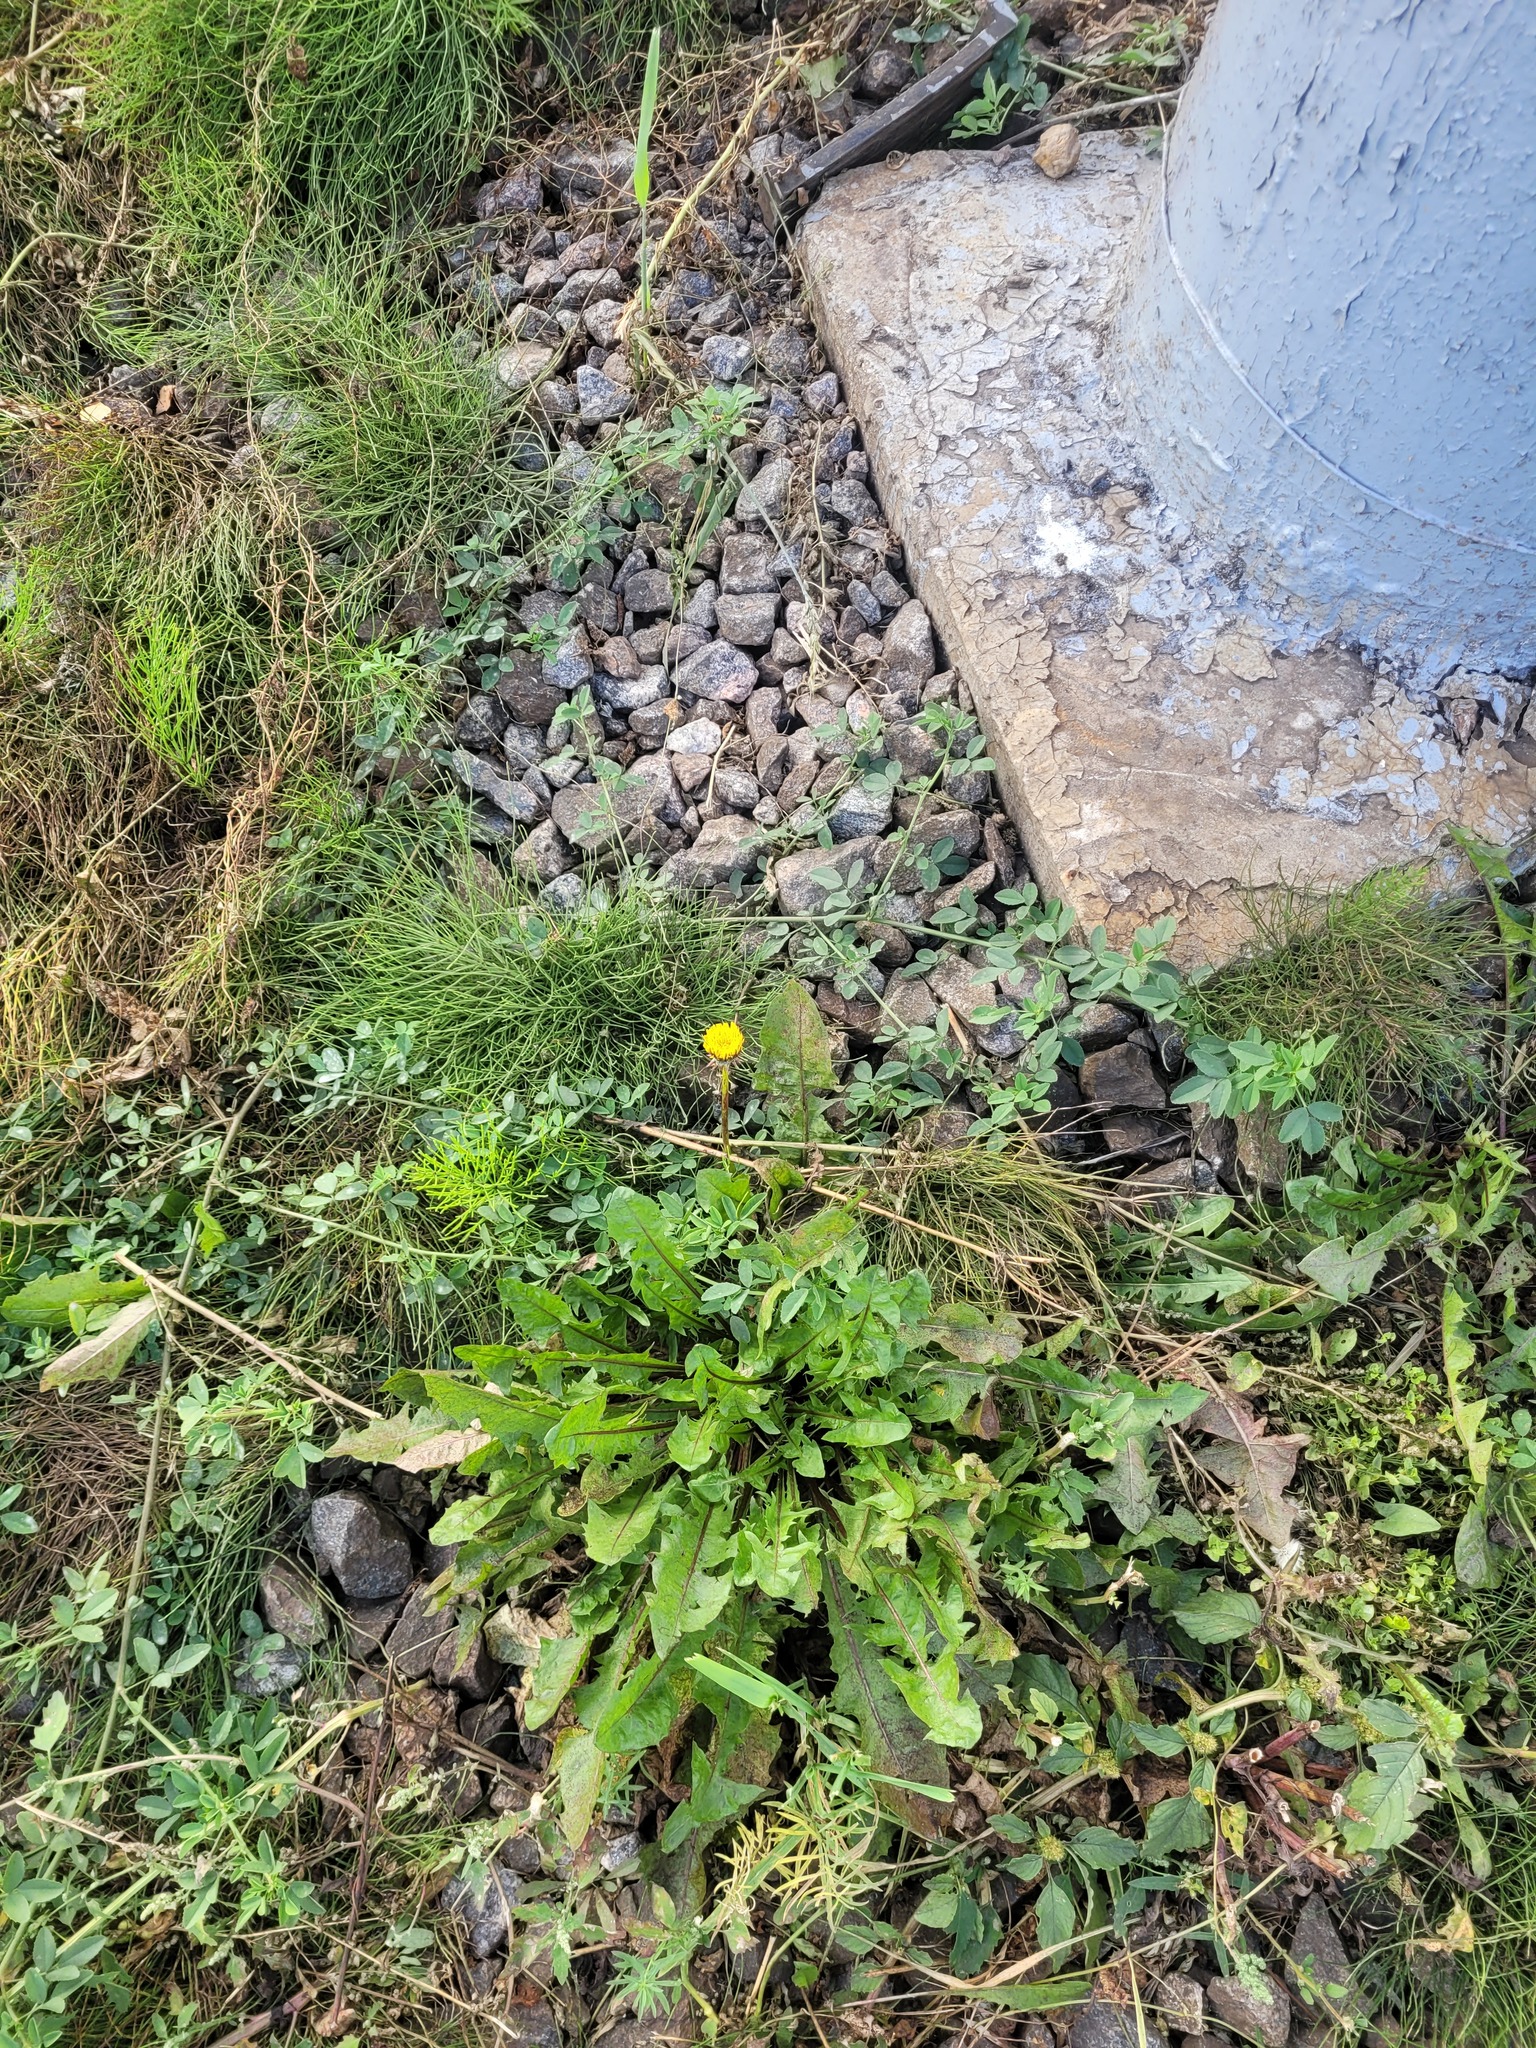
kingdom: Plantae
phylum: Tracheophyta
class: Magnoliopsida
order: Asterales
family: Asteraceae
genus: Taraxacum
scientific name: Taraxacum officinale
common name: Common dandelion
